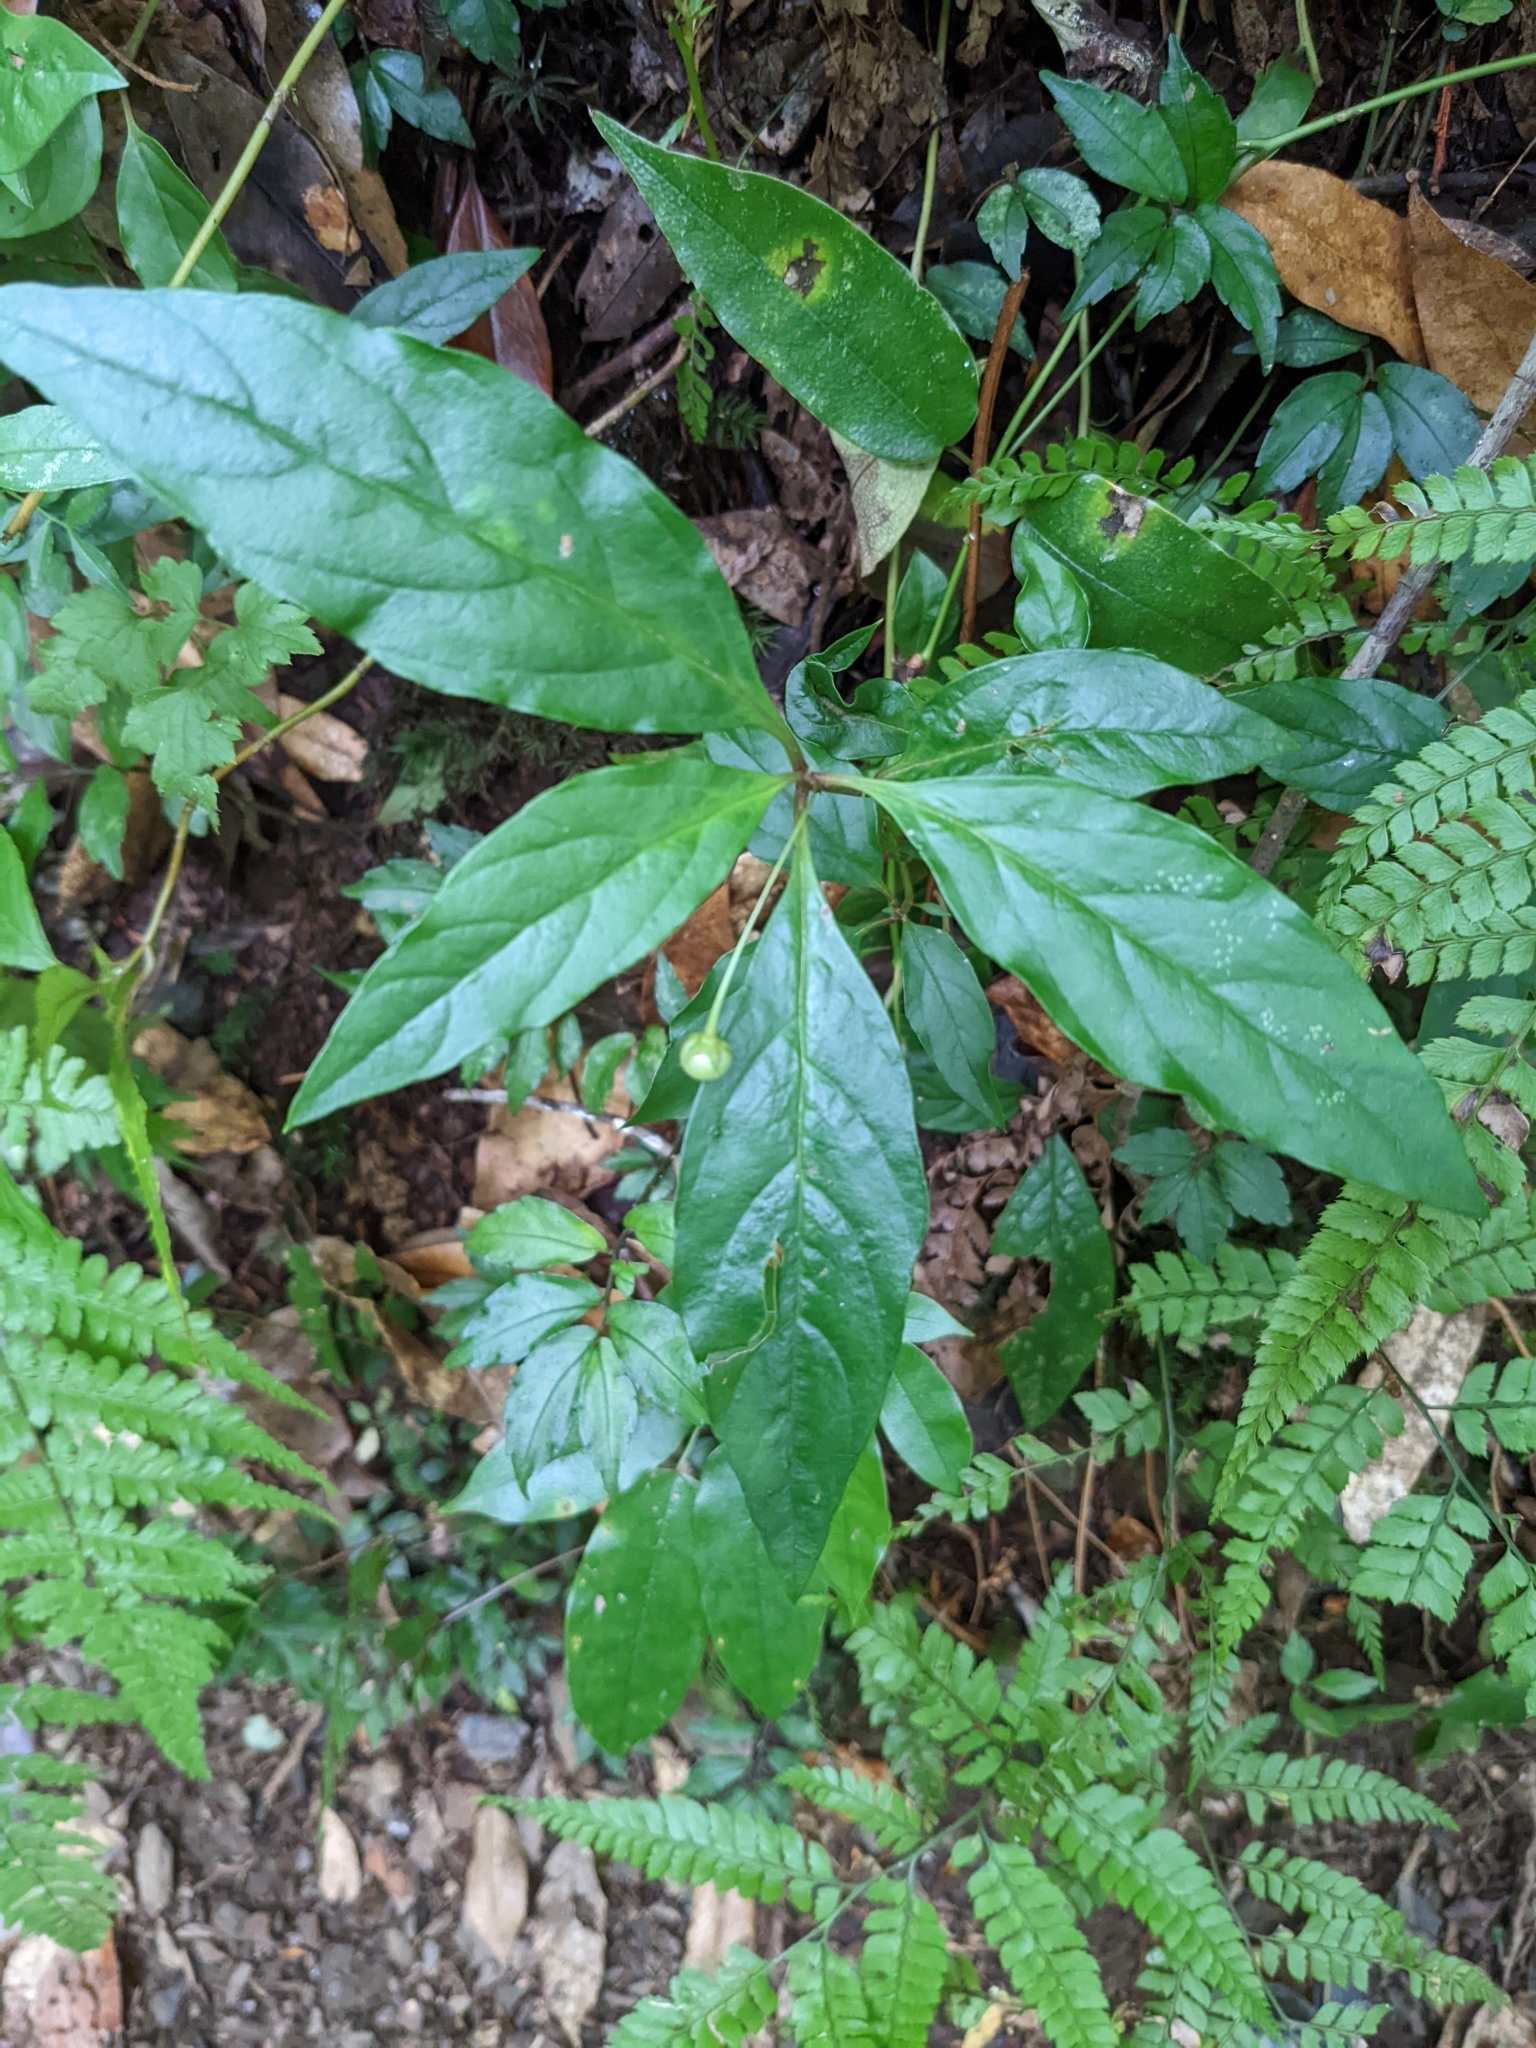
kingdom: Plantae
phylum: Tracheophyta
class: Magnoliopsida
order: Ericales
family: Primulaceae
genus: Lysimachia
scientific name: Lysimachia ardisioides
